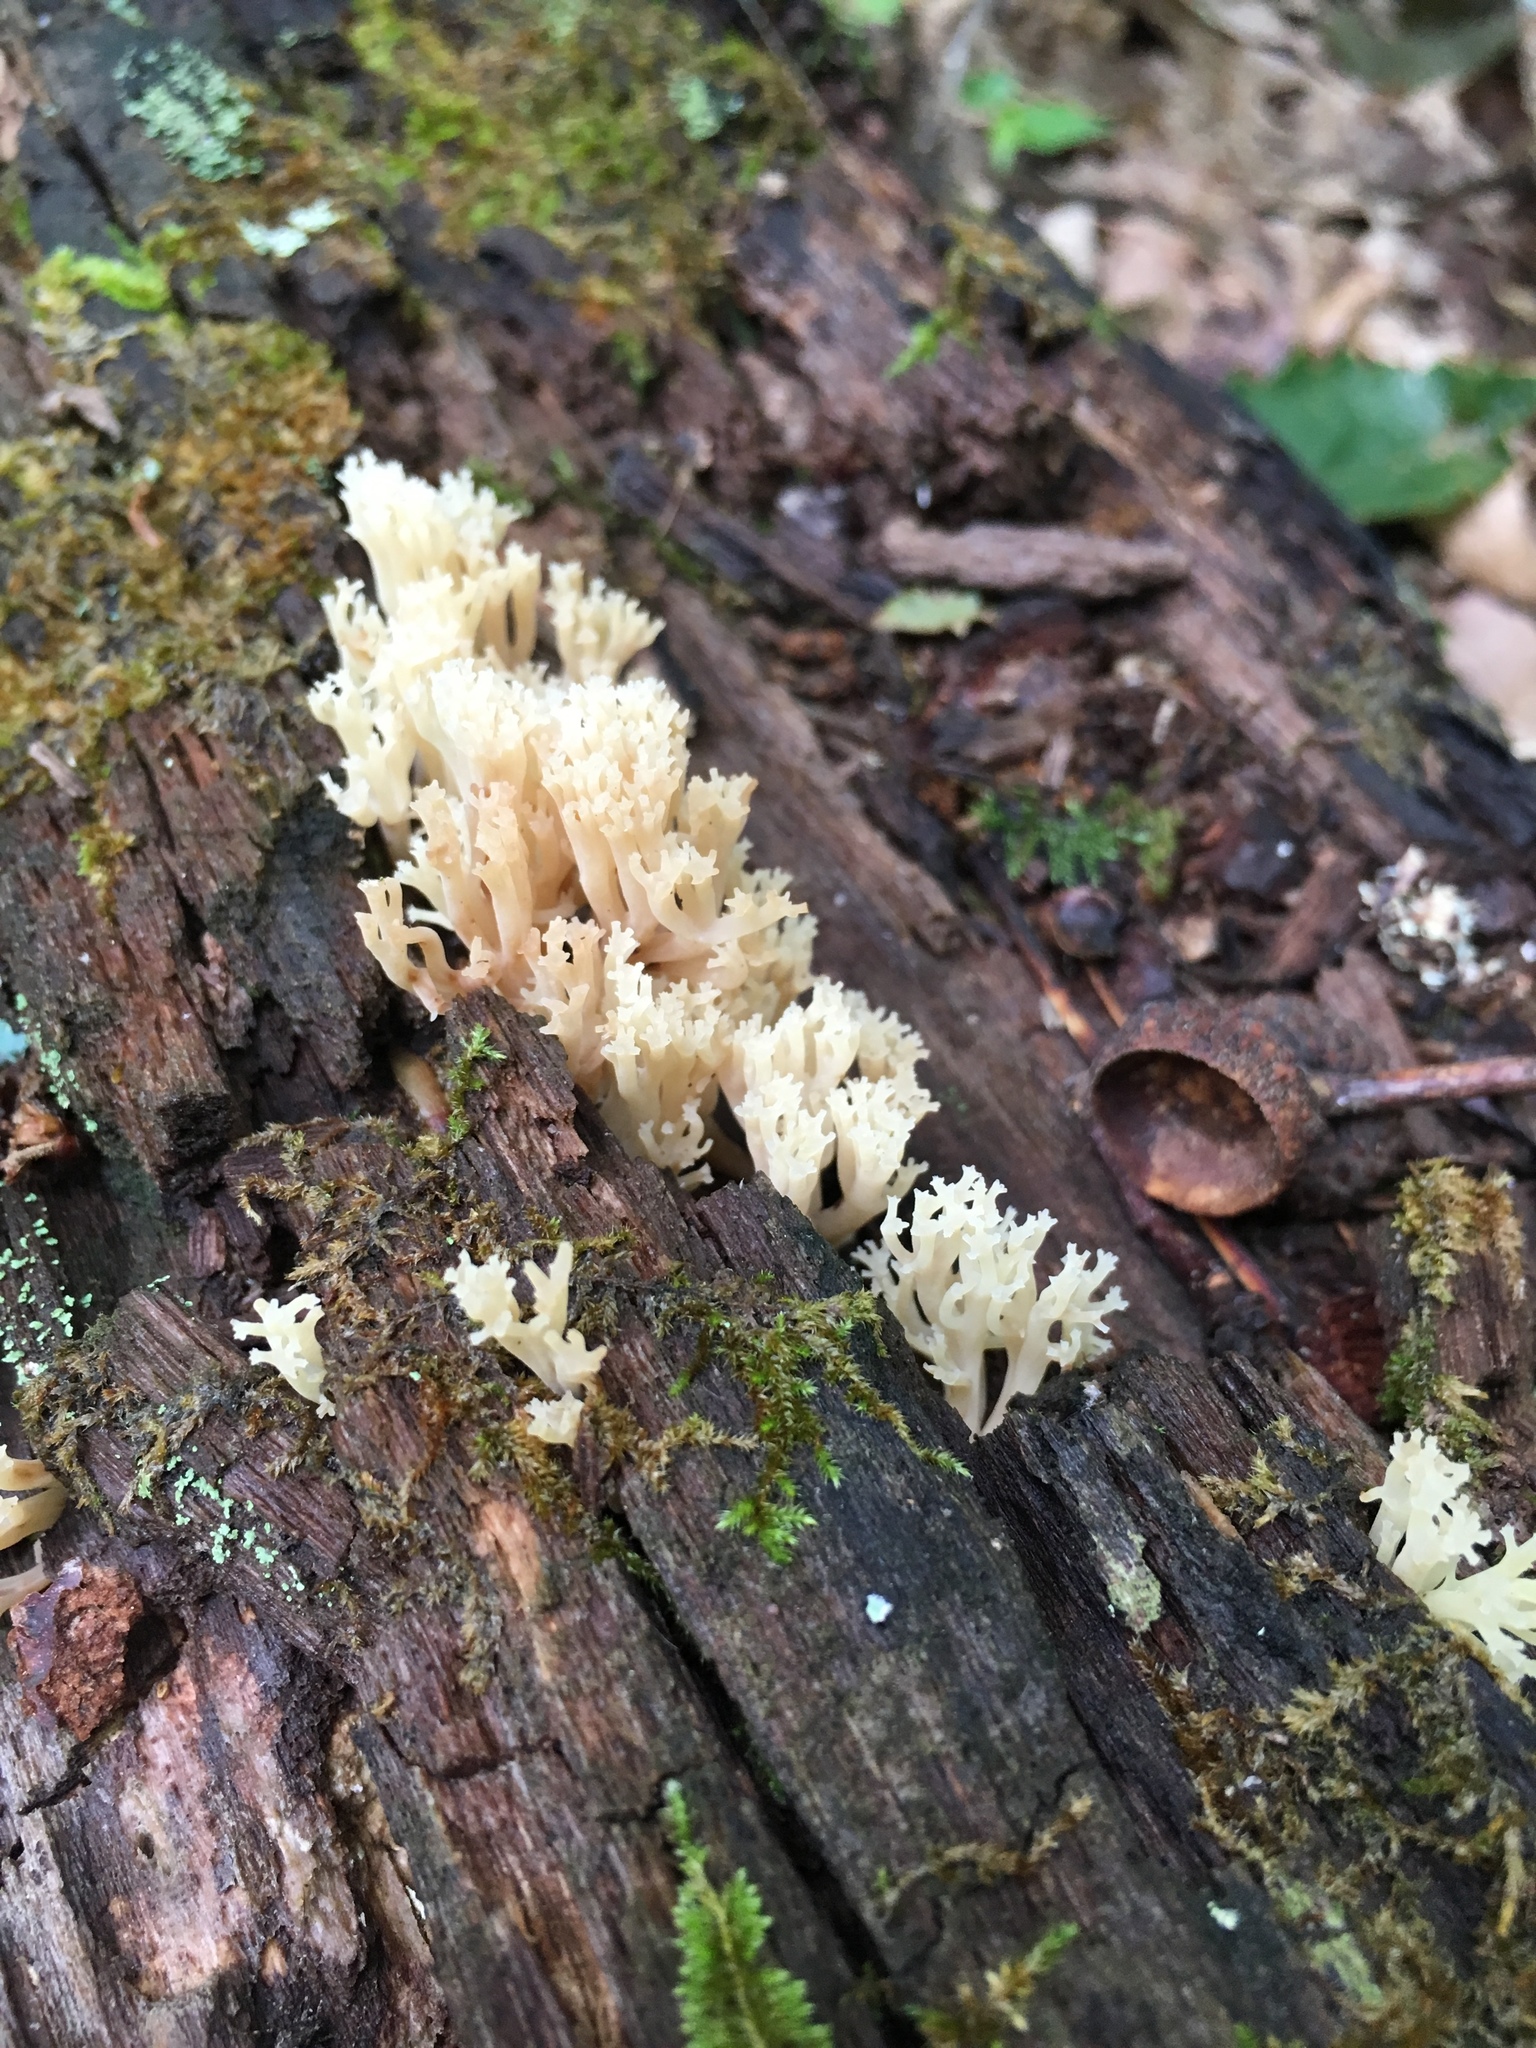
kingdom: Fungi
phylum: Basidiomycota
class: Agaricomycetes
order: Russulales
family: Auriscalpiaceae
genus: Artomyces
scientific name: Artomyces pyxidatus
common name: Crown-tipped coral fungus
